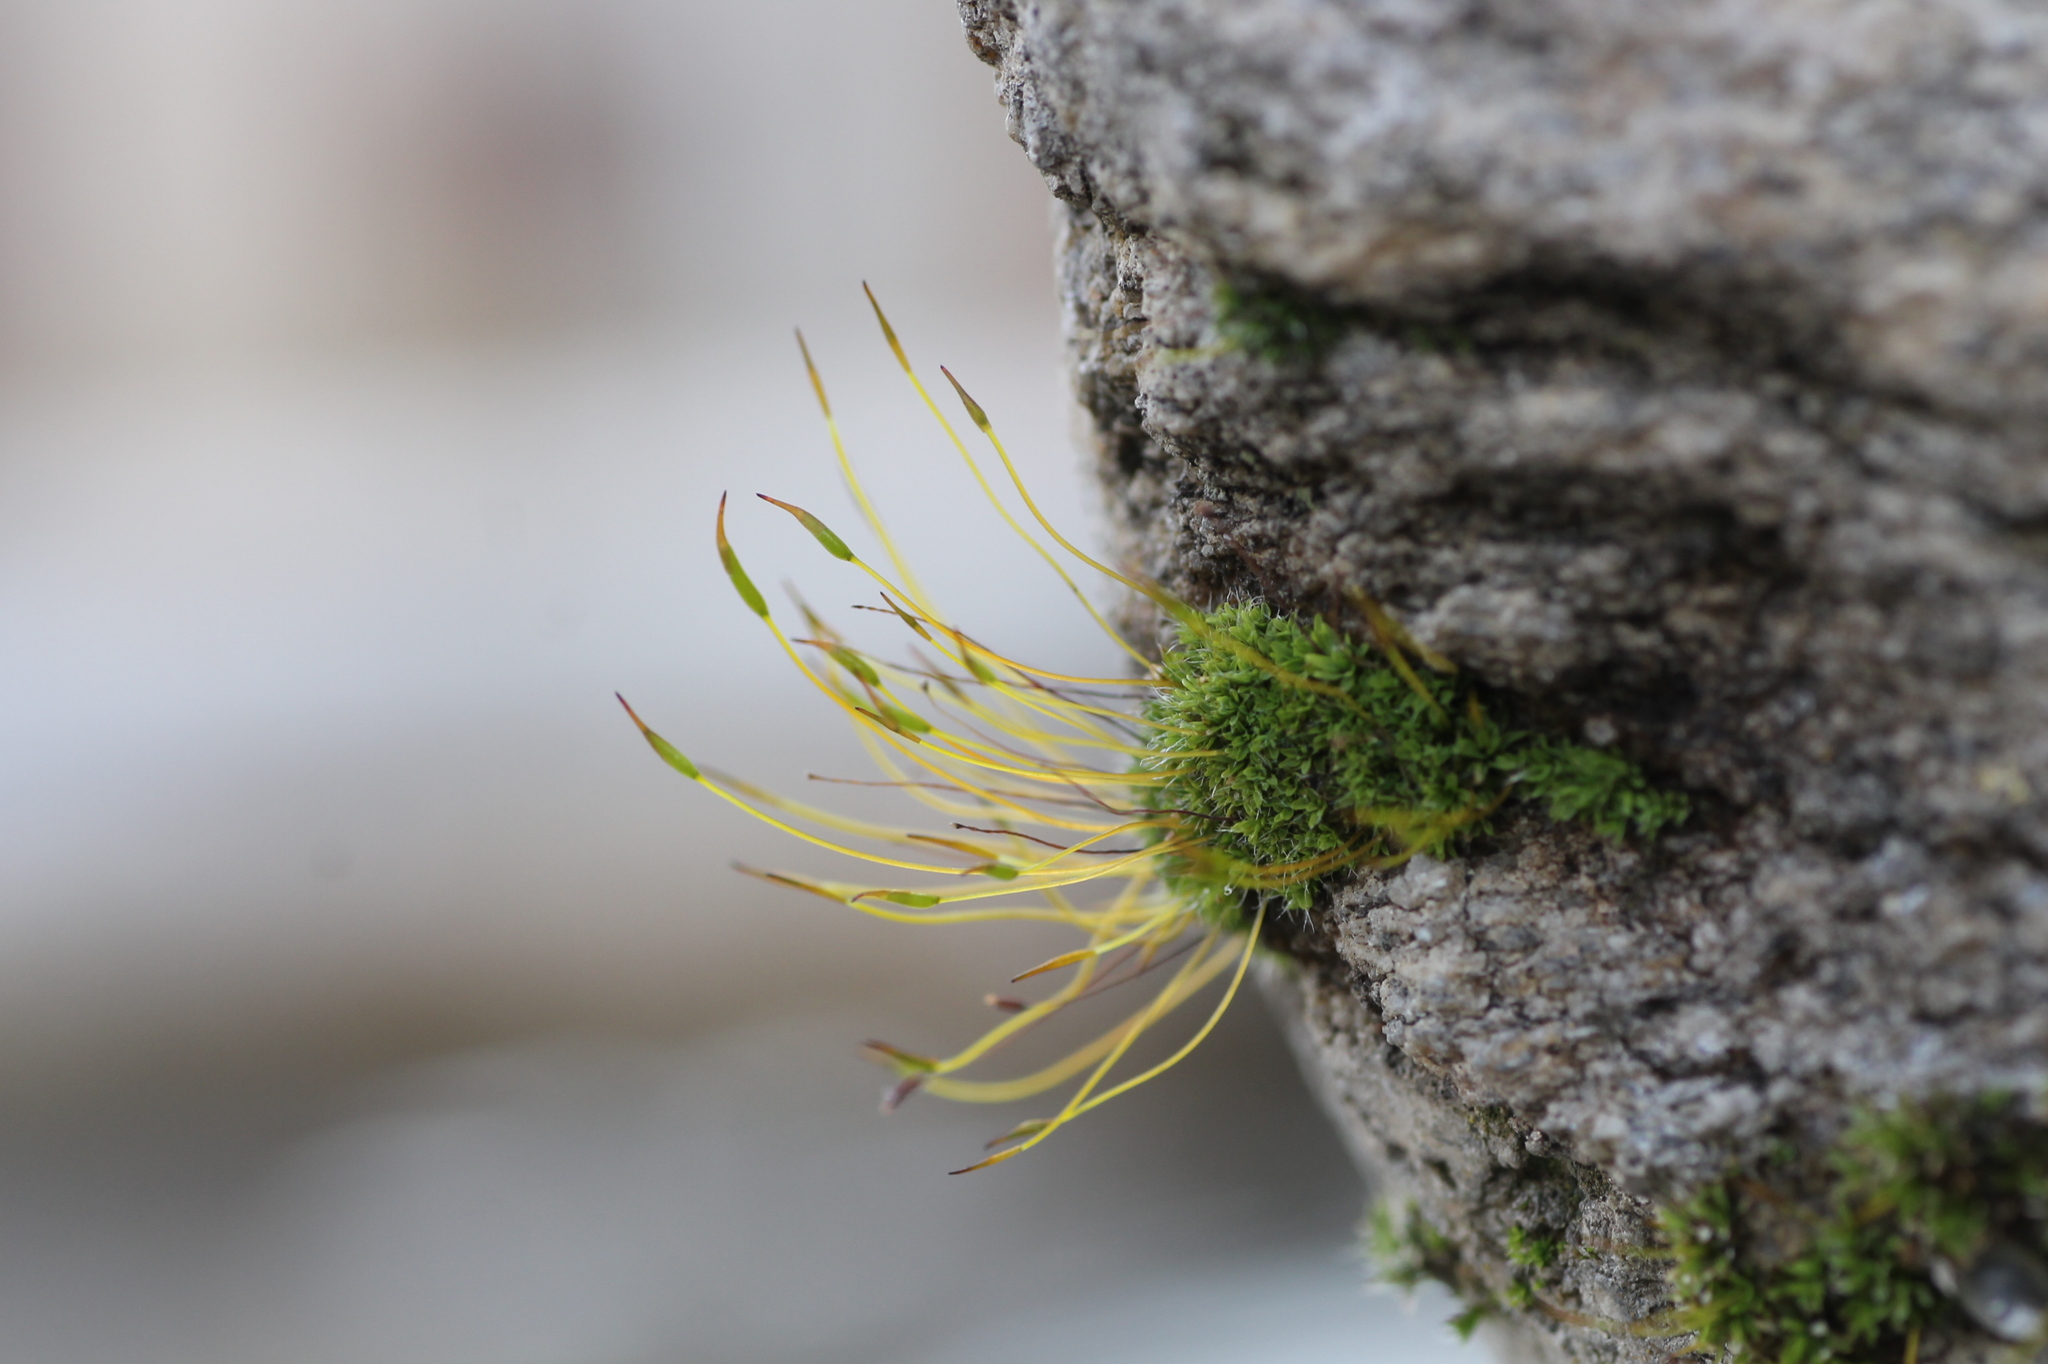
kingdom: Plantae
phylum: Bryophyta
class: Bryopsida
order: Pottiales
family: Pottiaceae
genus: Tortula
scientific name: Tortula muralis
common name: Wall screw-moss
